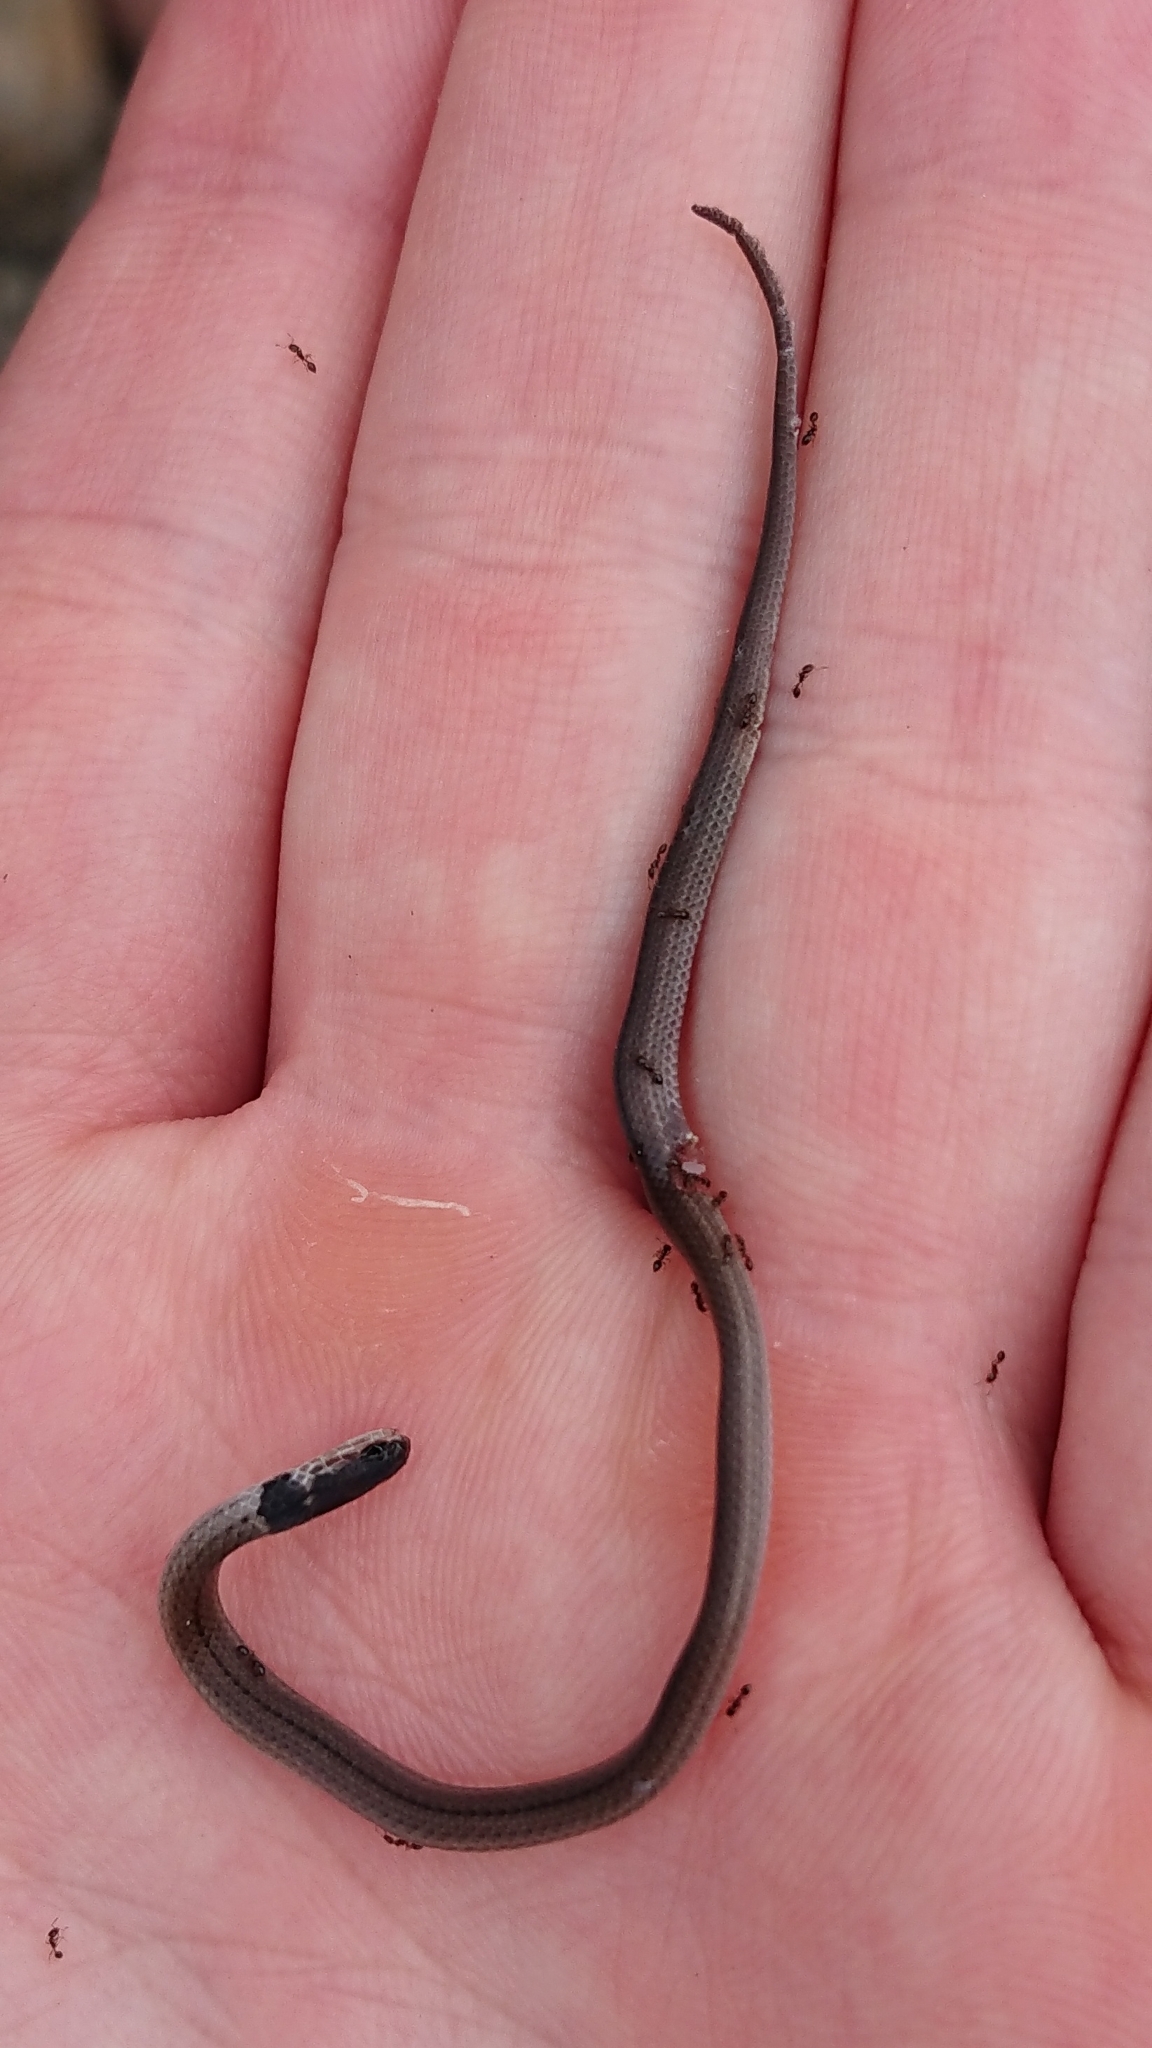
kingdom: Animalia
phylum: Chordata
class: Squamata
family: Atractaspididae
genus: Aparallactus
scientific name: Aparallactus capensis
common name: Cape centipede eater
